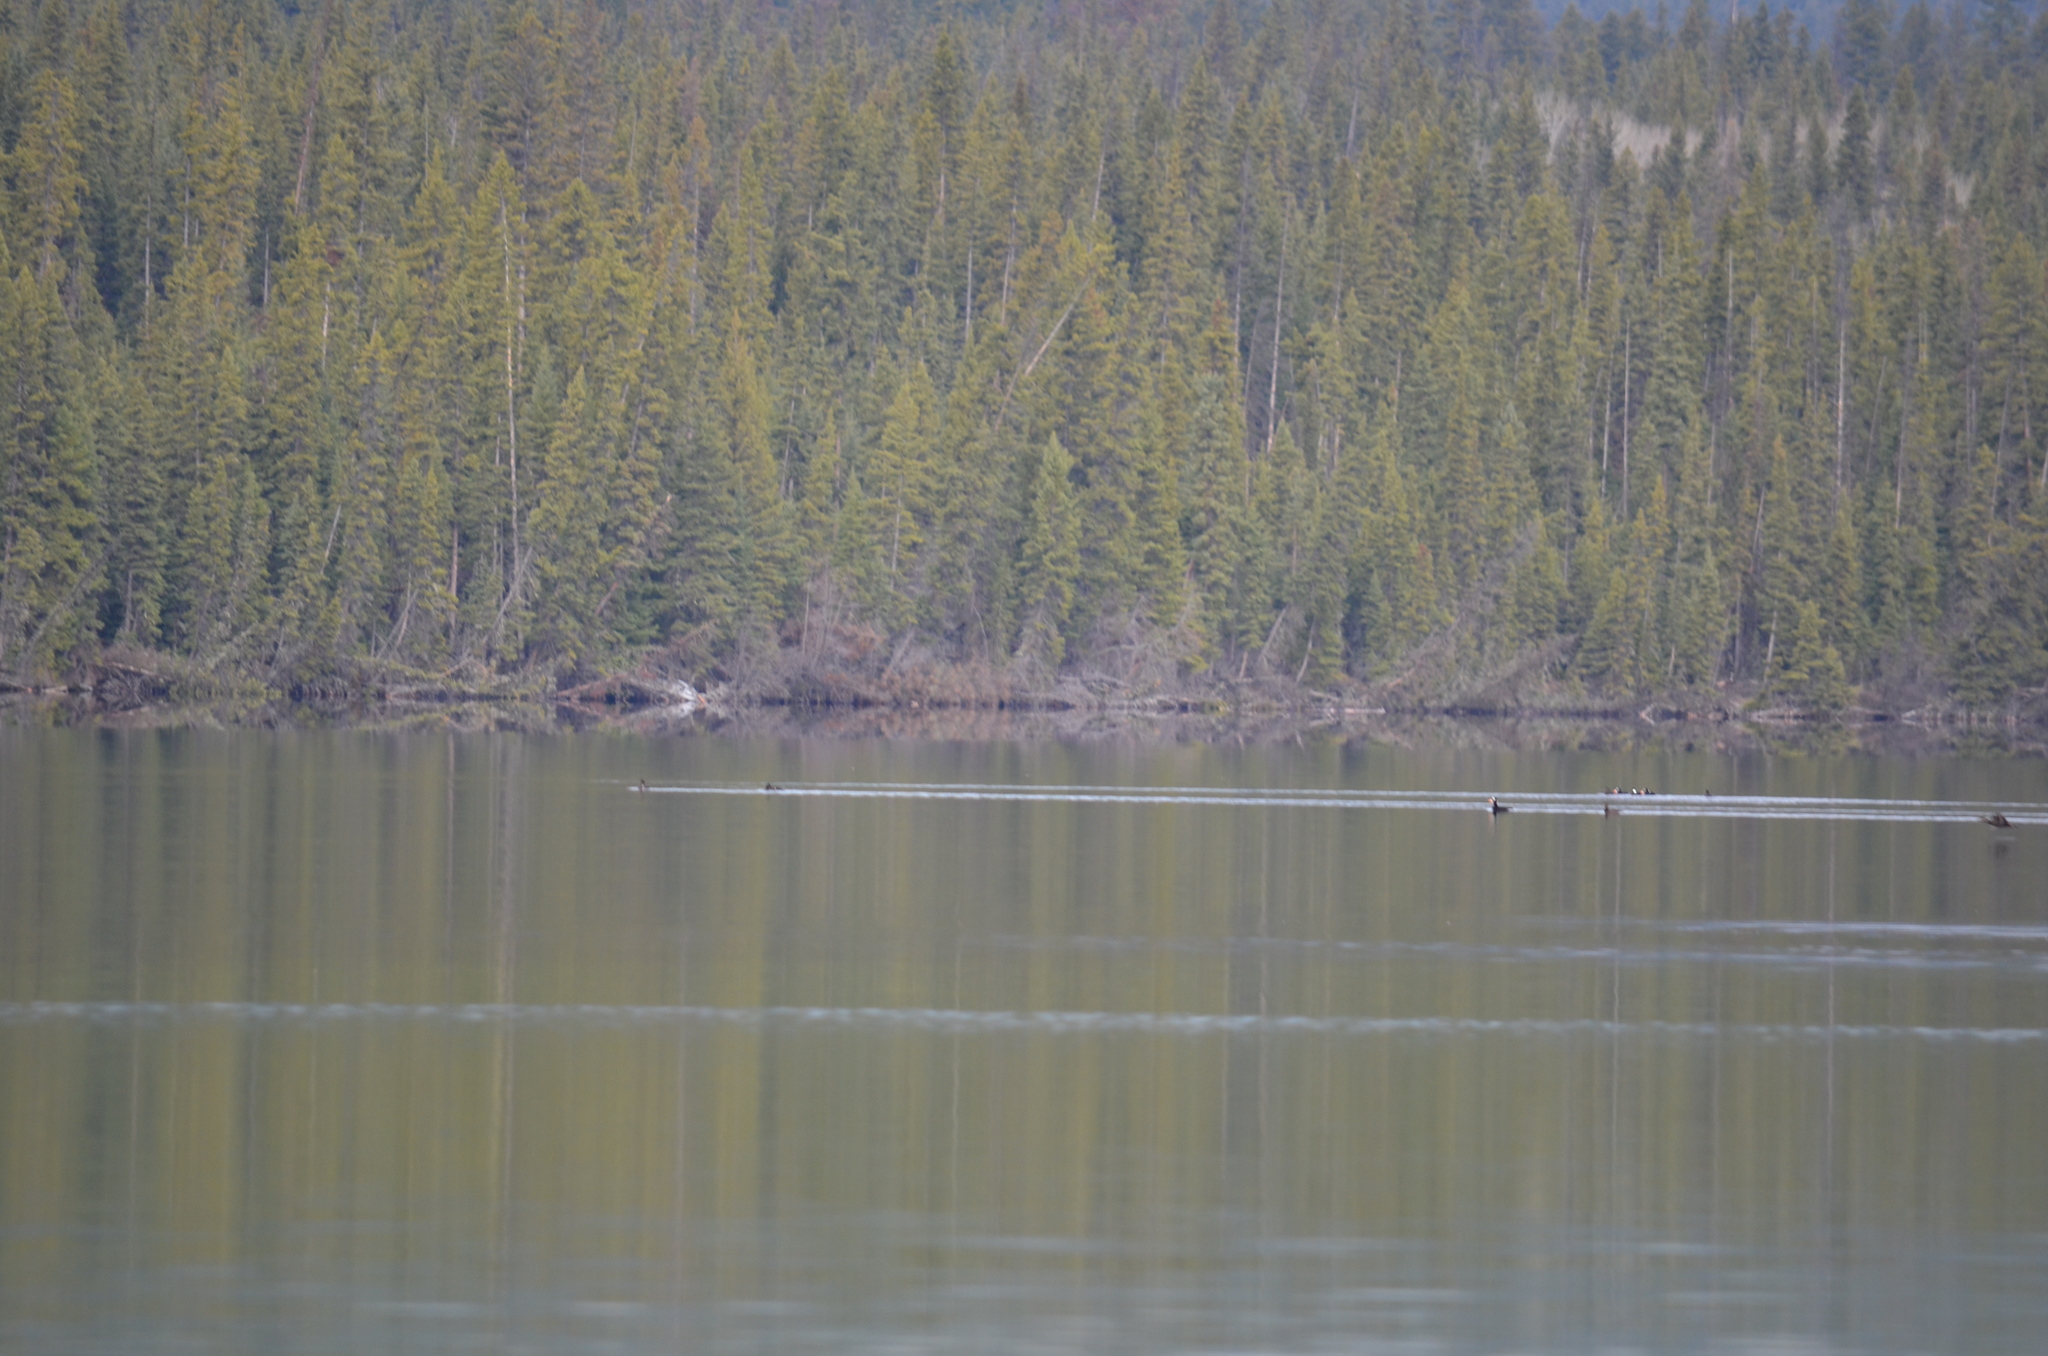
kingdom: Animalia
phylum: Chordata
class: Aves
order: Anseriformes
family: Anatidae
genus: Melanitta
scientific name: Melanitta perspicillata
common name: Surf scoter
